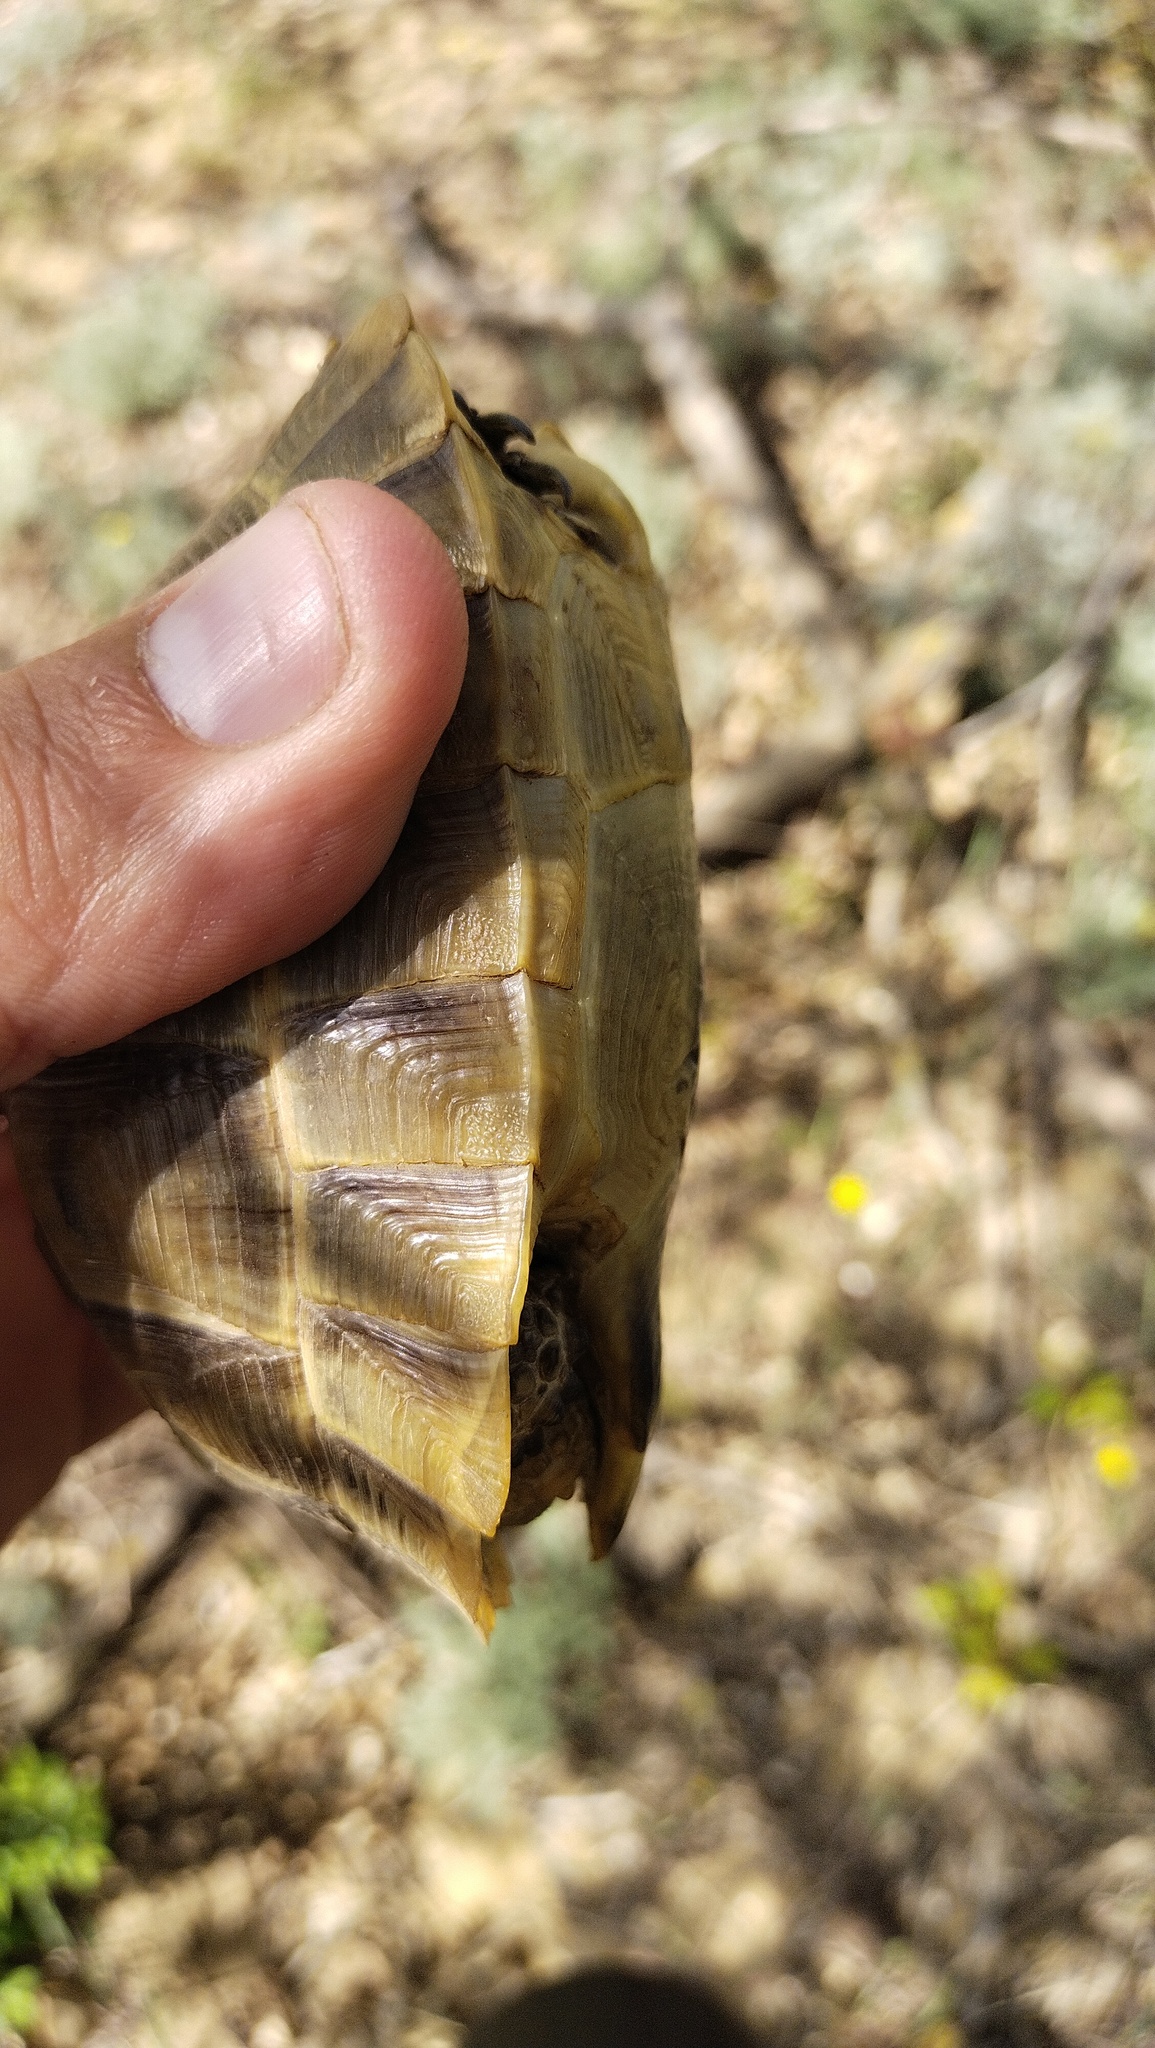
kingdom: Animalia
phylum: Chordata
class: Testudines
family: Testudinidae
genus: Testudo
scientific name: Testudo graeca
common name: Common tortoise
